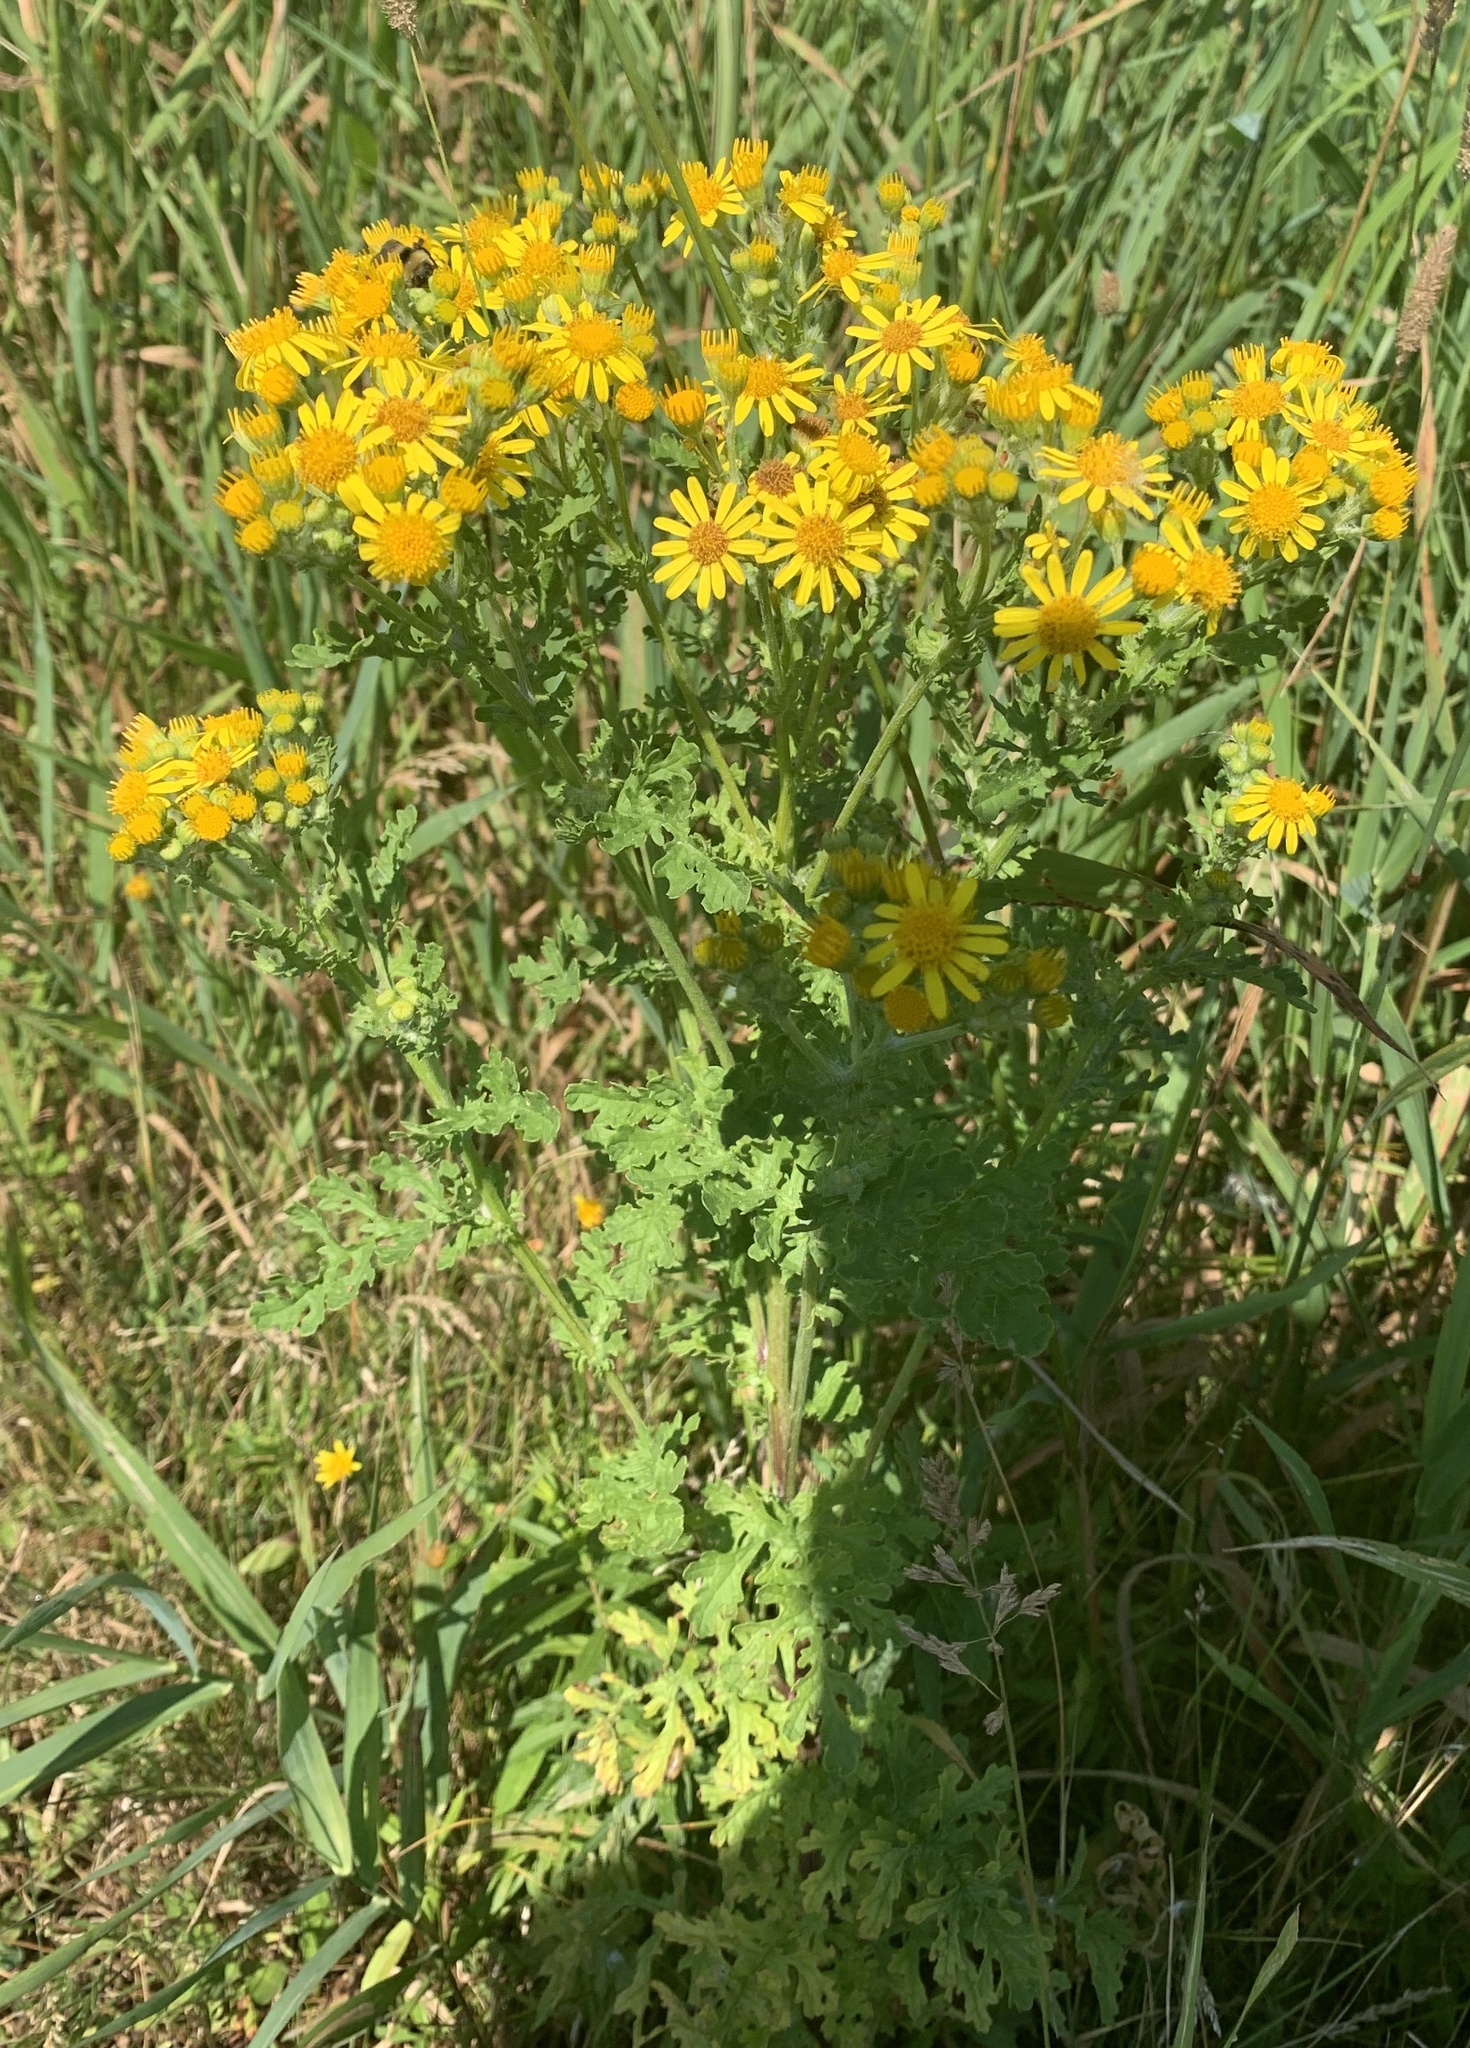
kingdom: Plantae
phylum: Tracheophyta
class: Magnoliopsida
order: Asterales
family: Asteraceae
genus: Jacobaea
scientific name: Jacobaea vulgaris
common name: Stinking willie
